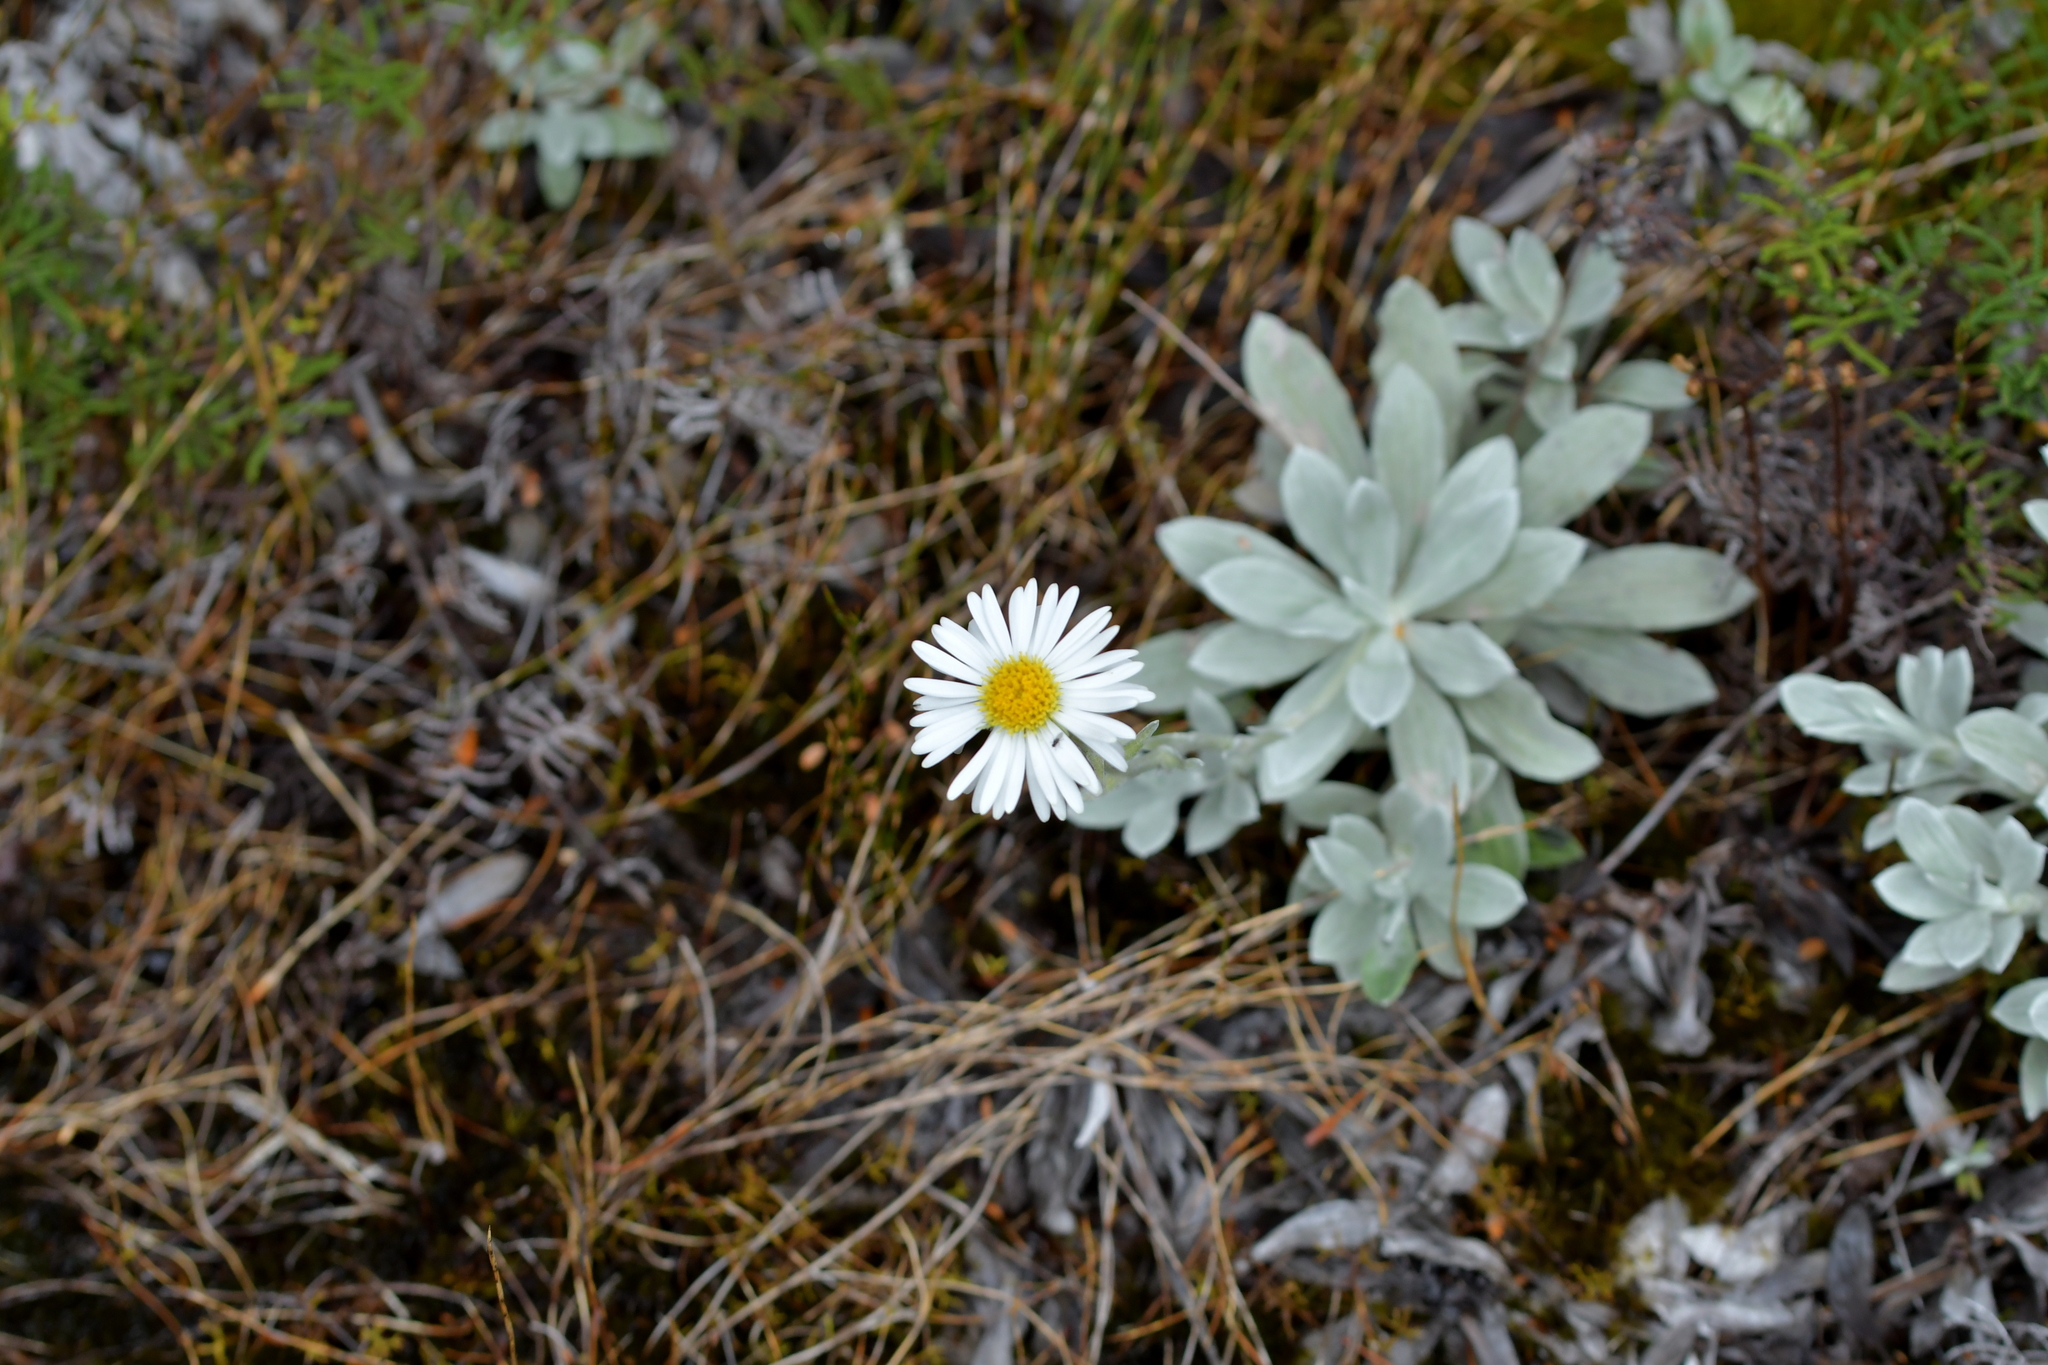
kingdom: Plantae
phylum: Tracheophyta
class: Magnoliopsida
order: Asterales
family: Asteraceae
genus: Celmisia
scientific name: Celmisia incana
